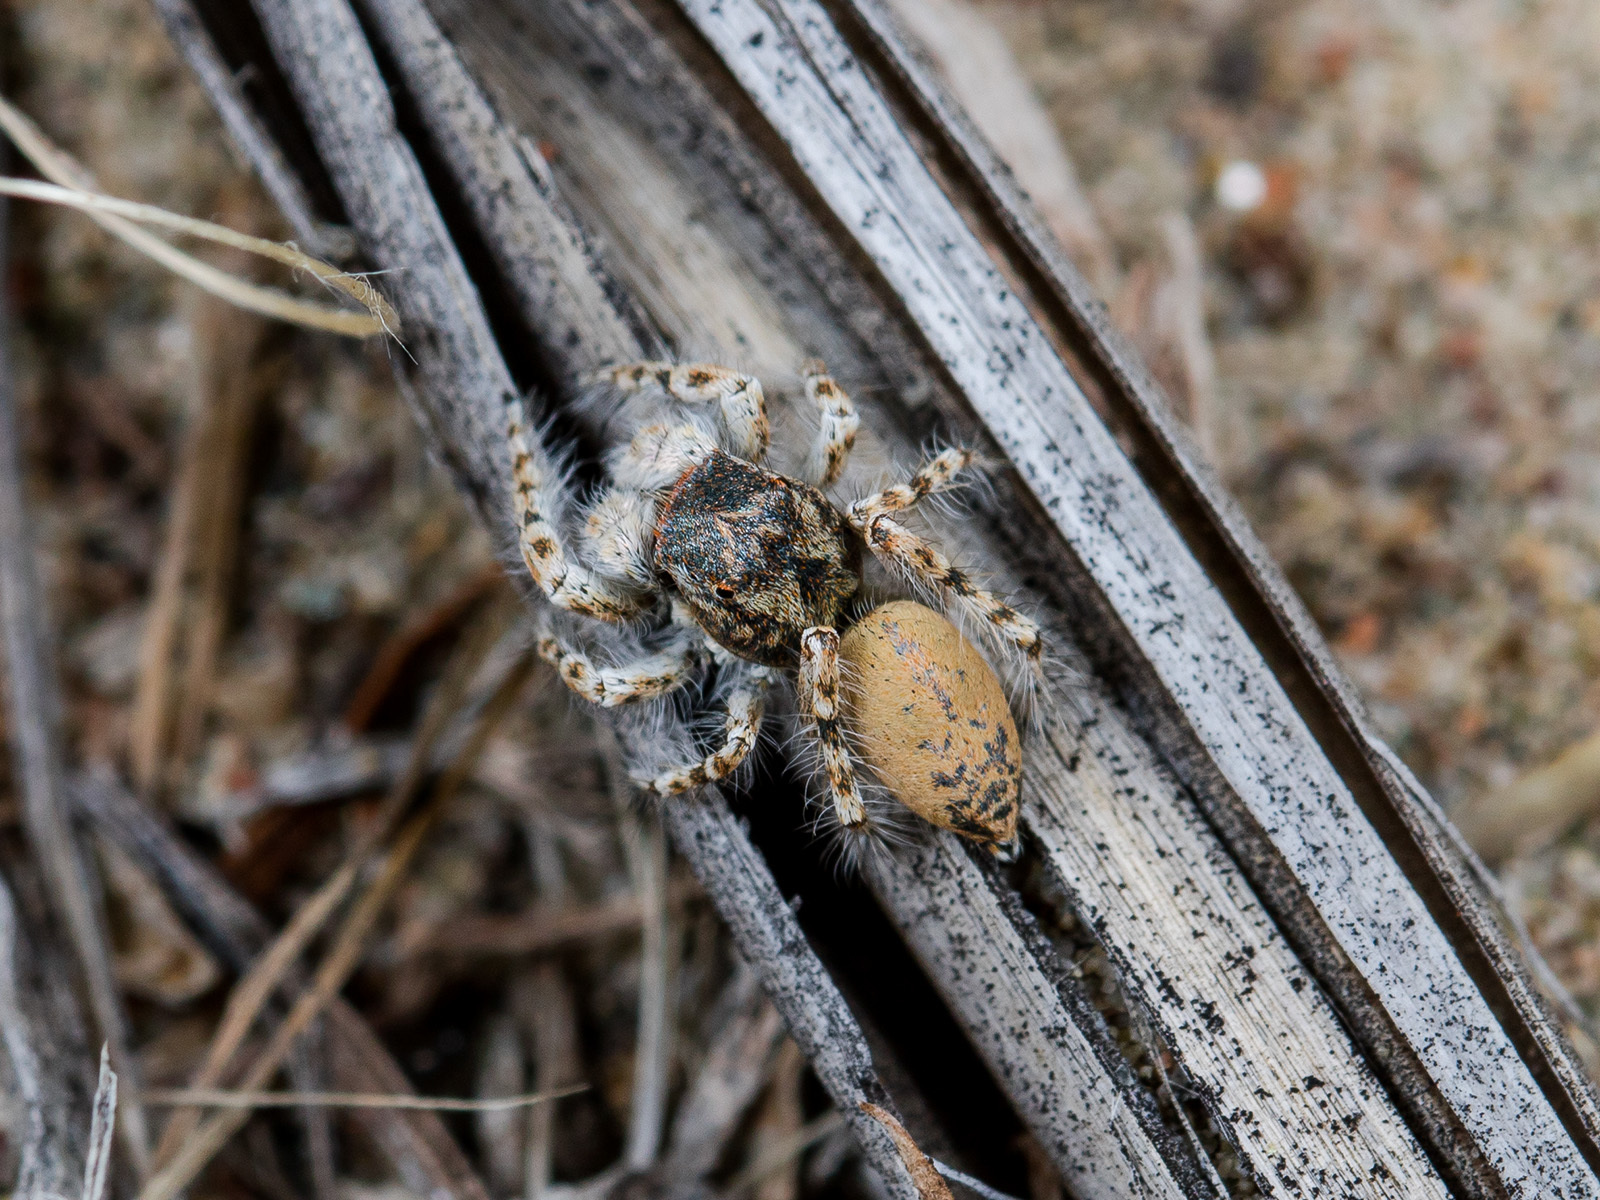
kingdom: Animalia
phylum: Arthropoda
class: Arachnida
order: Araneae
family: Salticidae
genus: Yllenus
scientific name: Yllenus uiguricus
